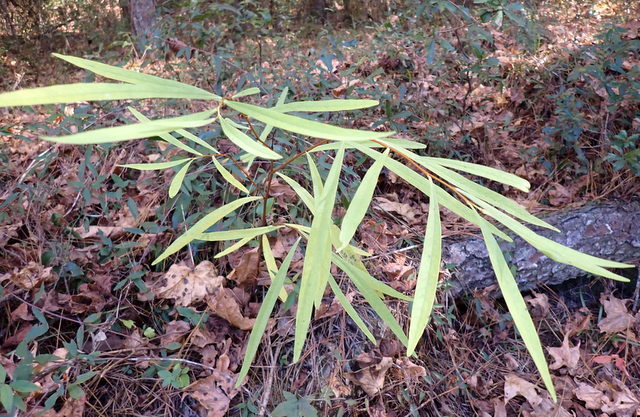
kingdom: Plantae
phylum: Tracheophyta
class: Magnoliopsida
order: Magnoliales
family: Annonaceae
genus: Asimina
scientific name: Asimina longifolia
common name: Polecatbush
